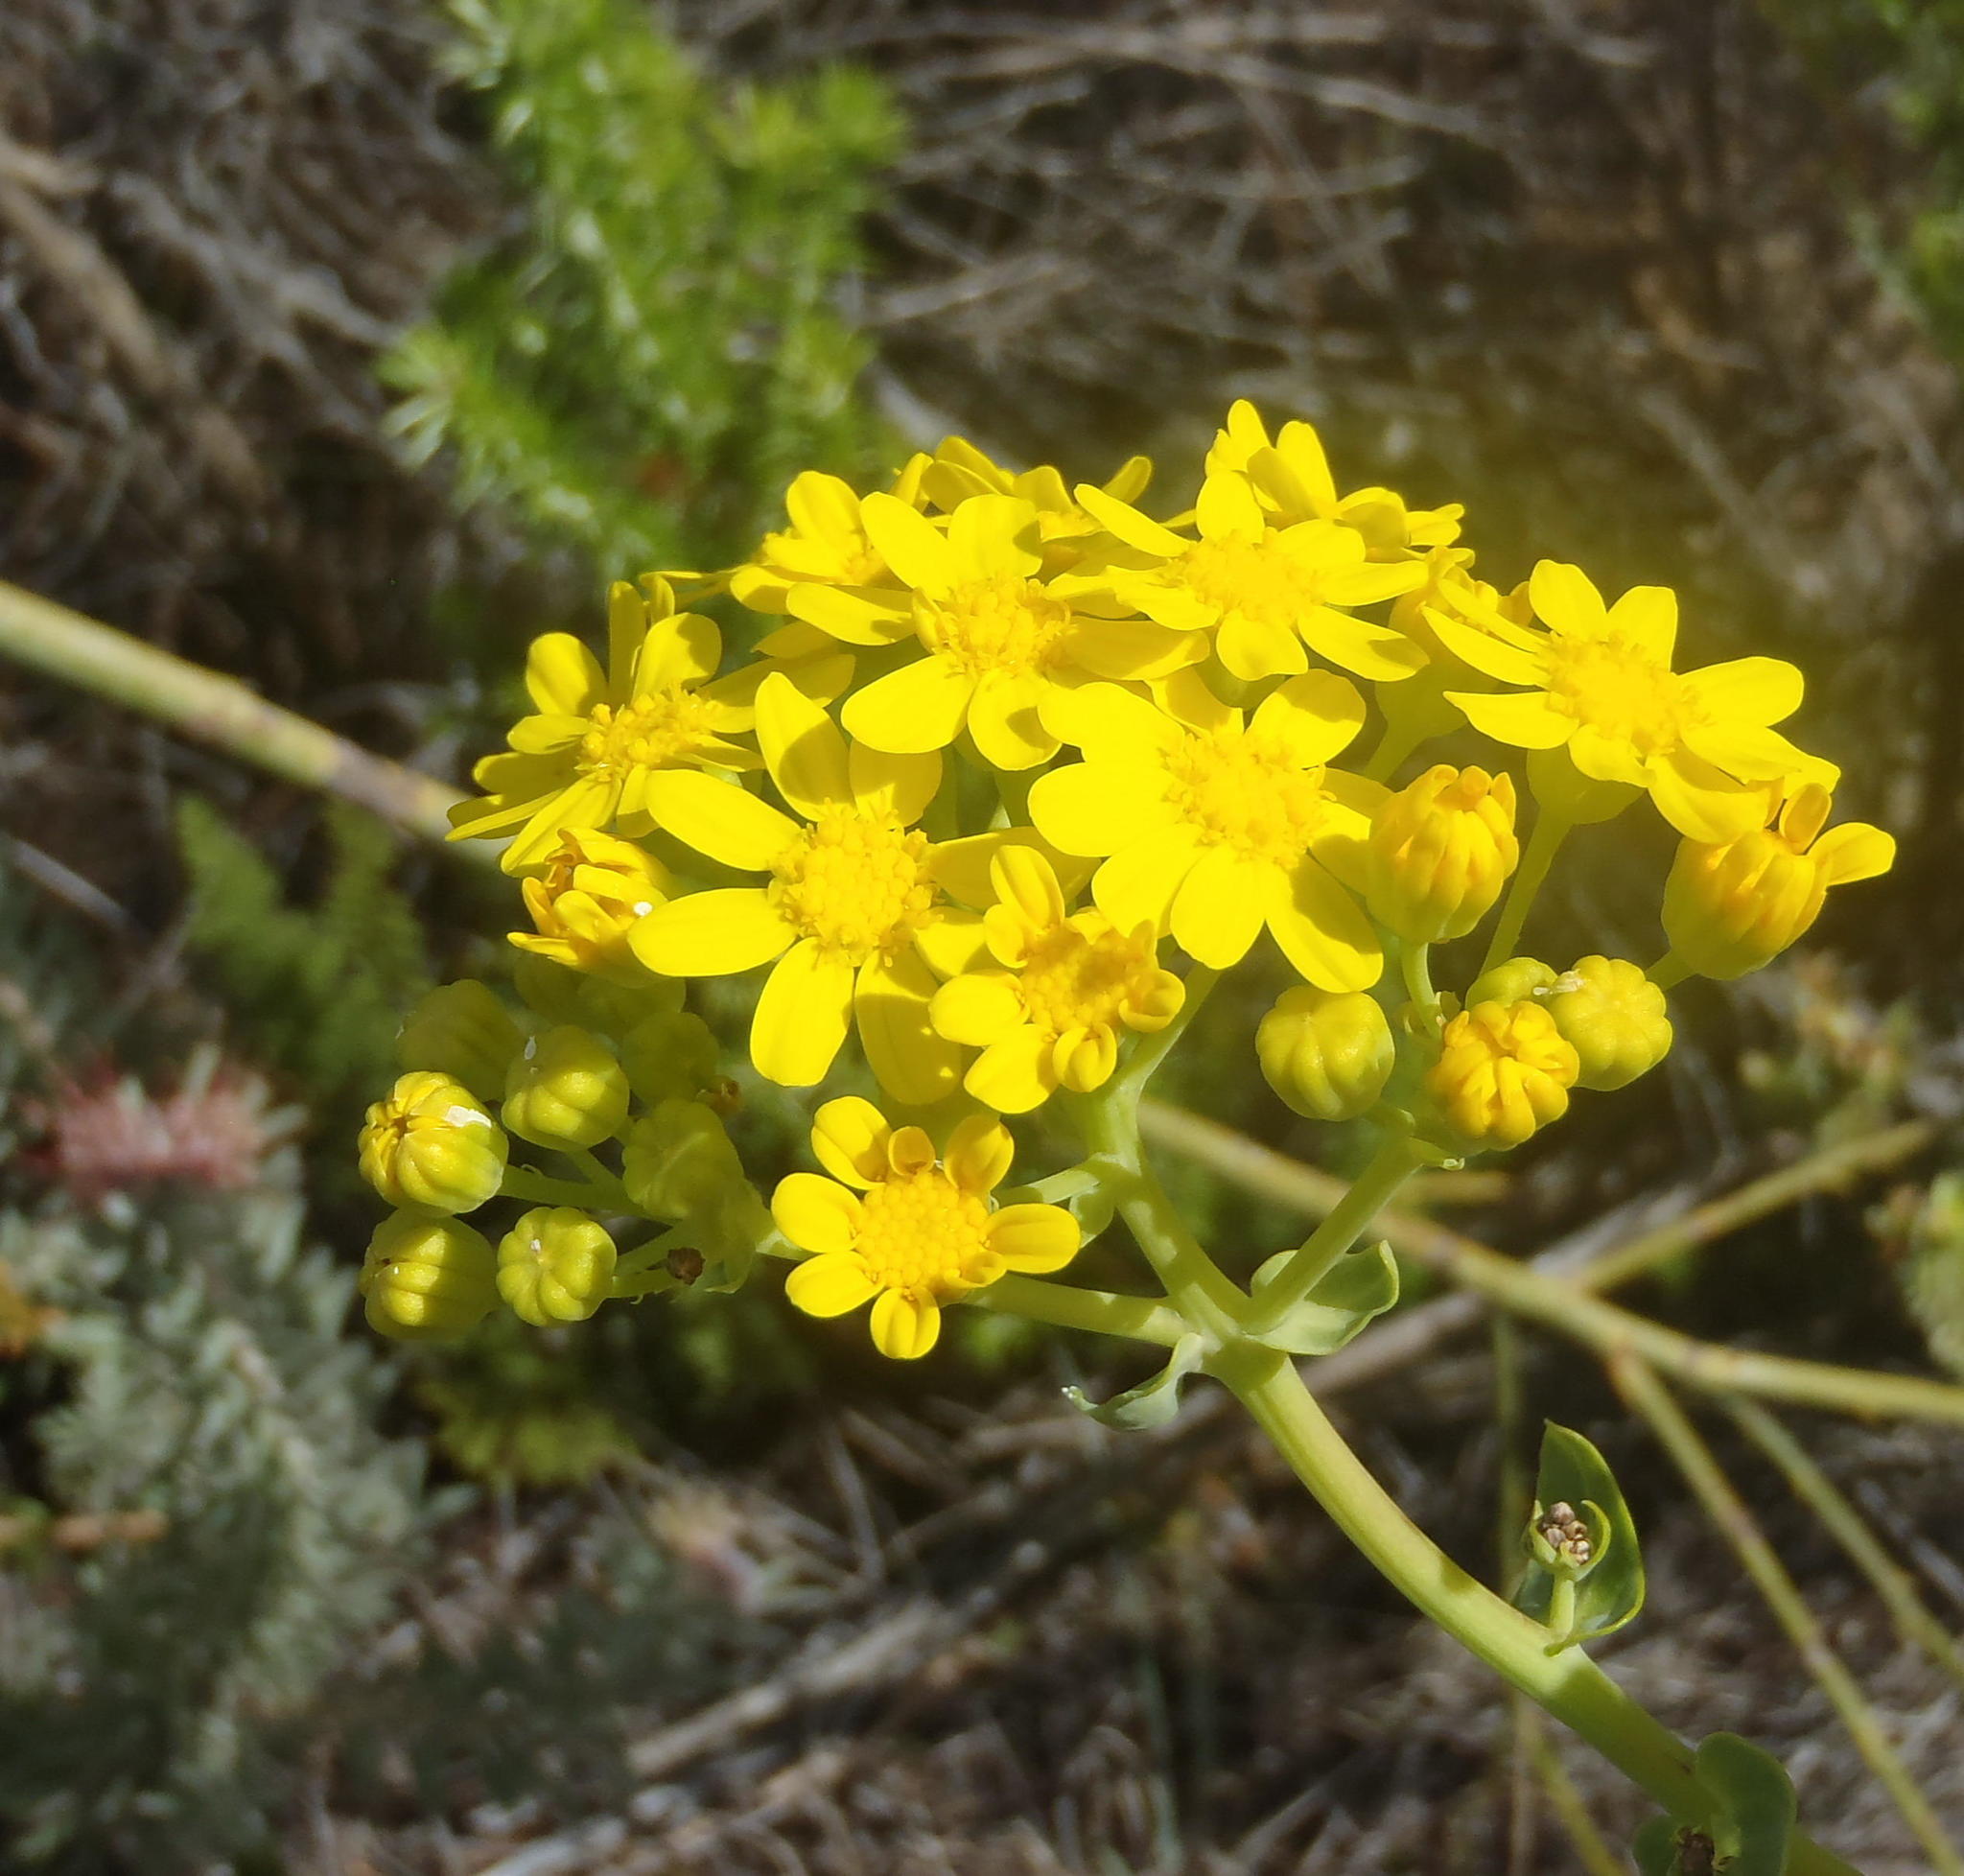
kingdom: Plantae
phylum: Tracheophyta
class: Magnoliopsida
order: Asterales
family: Asteraceae
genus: Othonna
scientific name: Othonna parviflora
